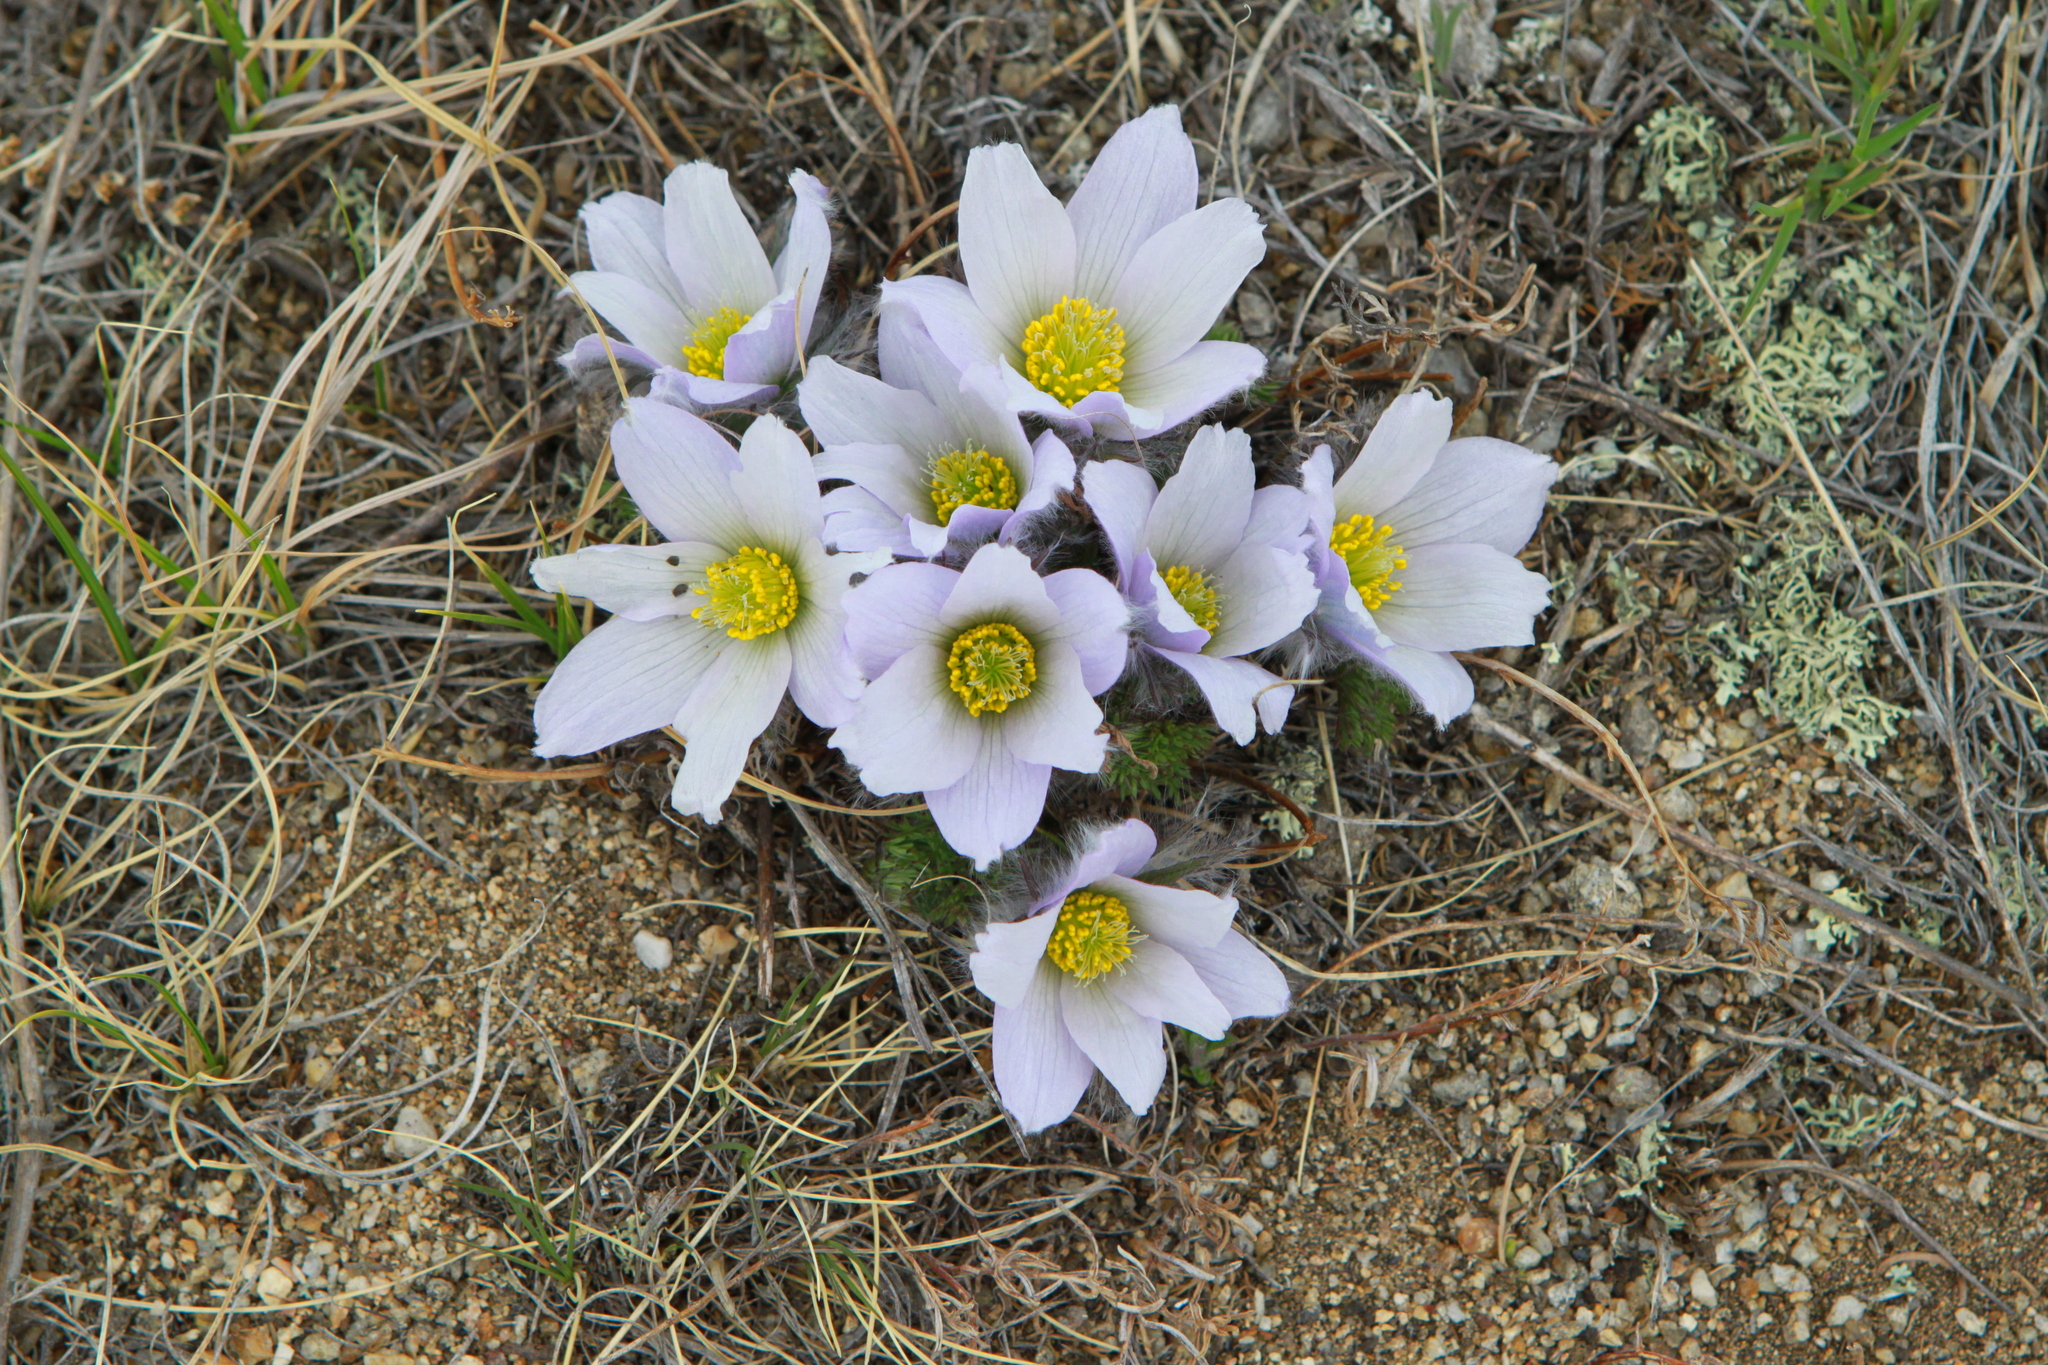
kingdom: Plantae
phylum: Tracheophyta
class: Magnoliopsida
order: Ranunculales
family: Ranunculaceae
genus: Pulsatilla
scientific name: Pulsatilla tenuiloba
